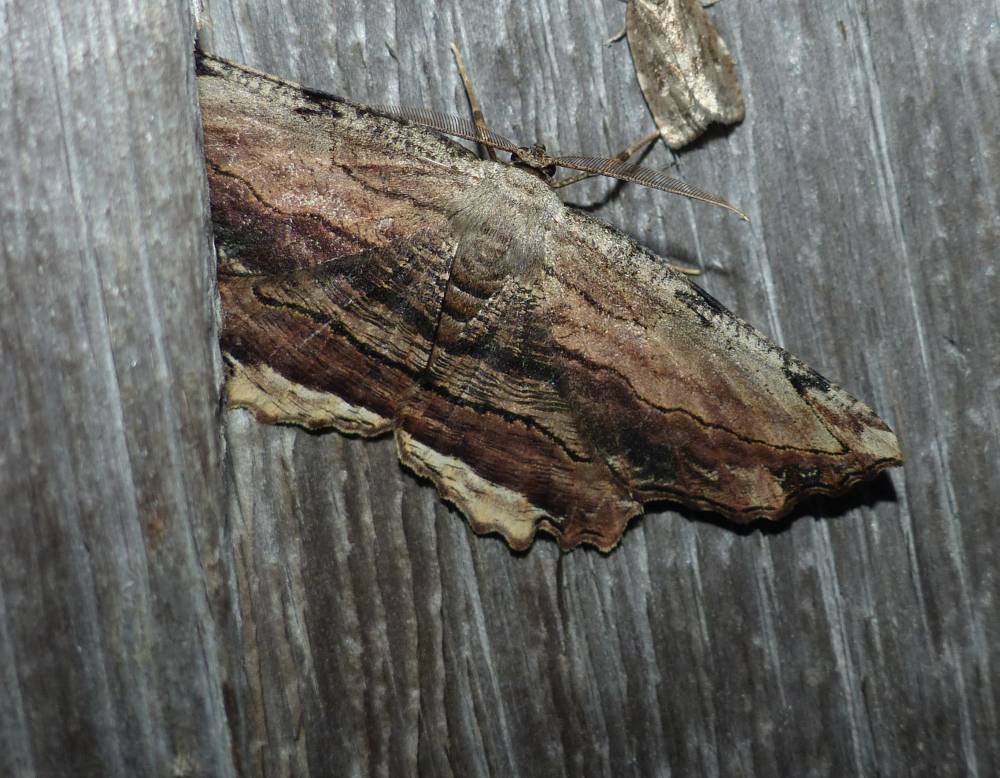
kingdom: Animalia
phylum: Arthropoda
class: Insecta
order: Lepidoptera
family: Geometridae
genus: Lytrosis
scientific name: Lytrosis unitaria
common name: Common lytrosis
